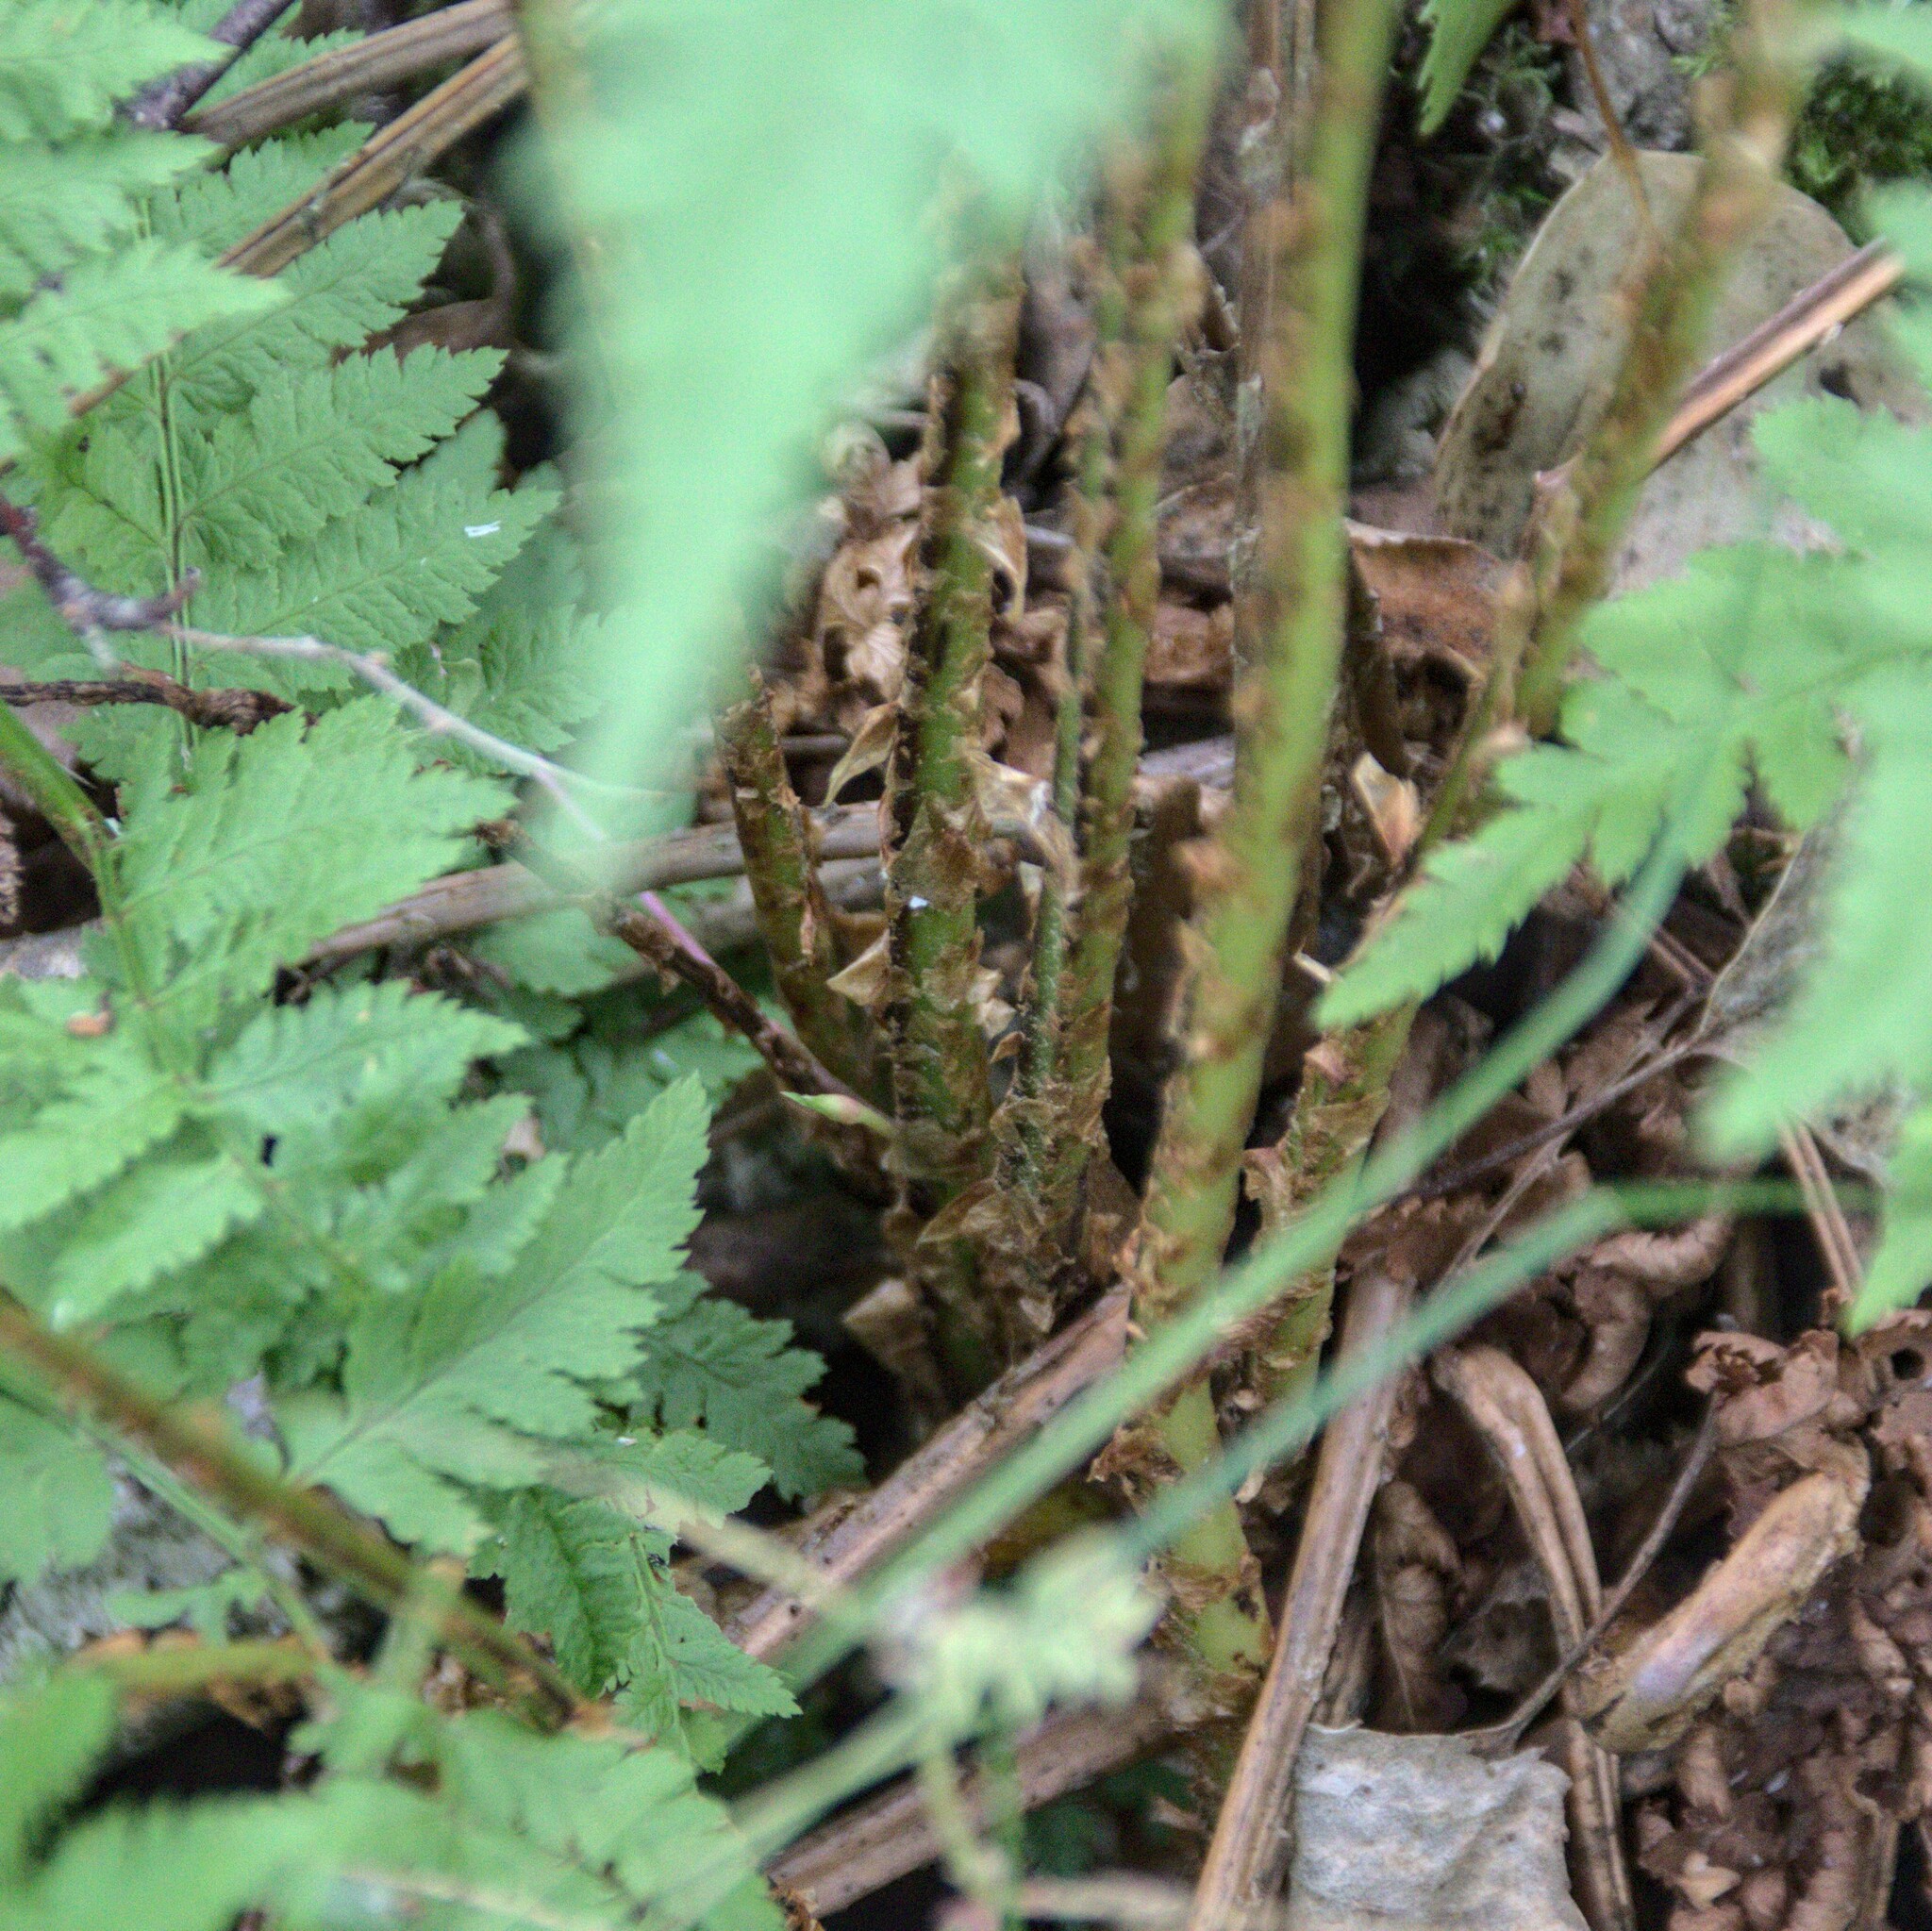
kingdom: Plantae
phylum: Tracheophyta
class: Polypodiopsida
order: Polypodiales
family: Dryopteridaceae
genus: Dryopteris
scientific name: Dryopteris carthusiana
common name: Narrow buckler-fern
